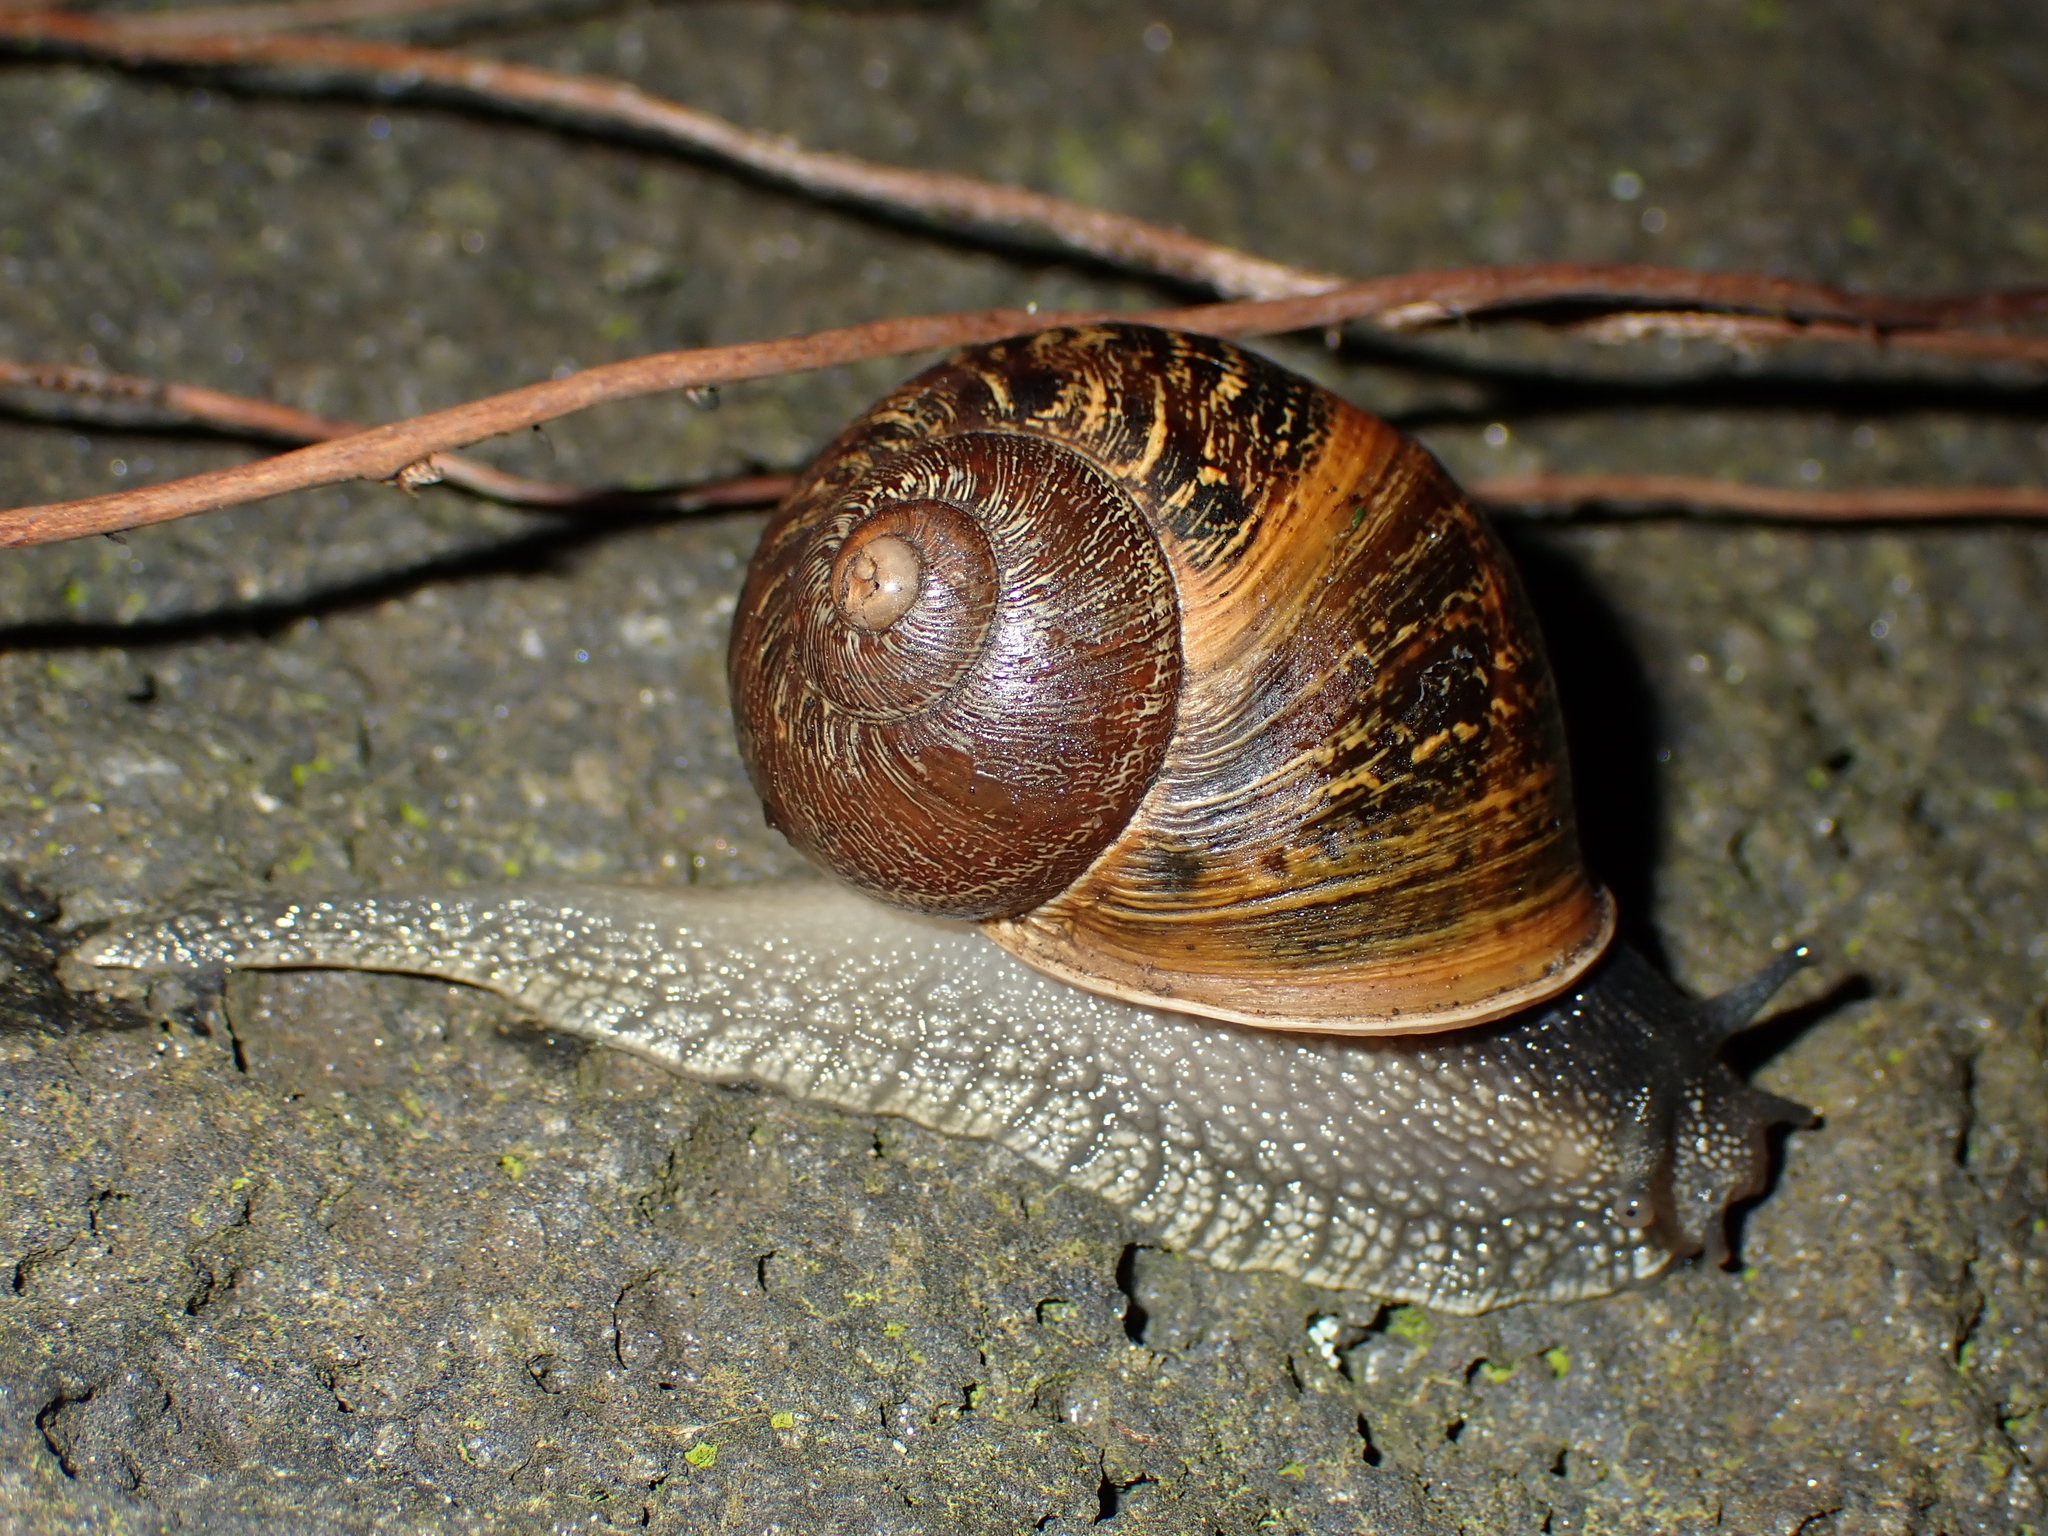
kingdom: Animalia
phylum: Mollusca
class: Gastropoda
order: Stylommatophora
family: Helicidae
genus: Cornu
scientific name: Cornu aspersum
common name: Brown garden snail
